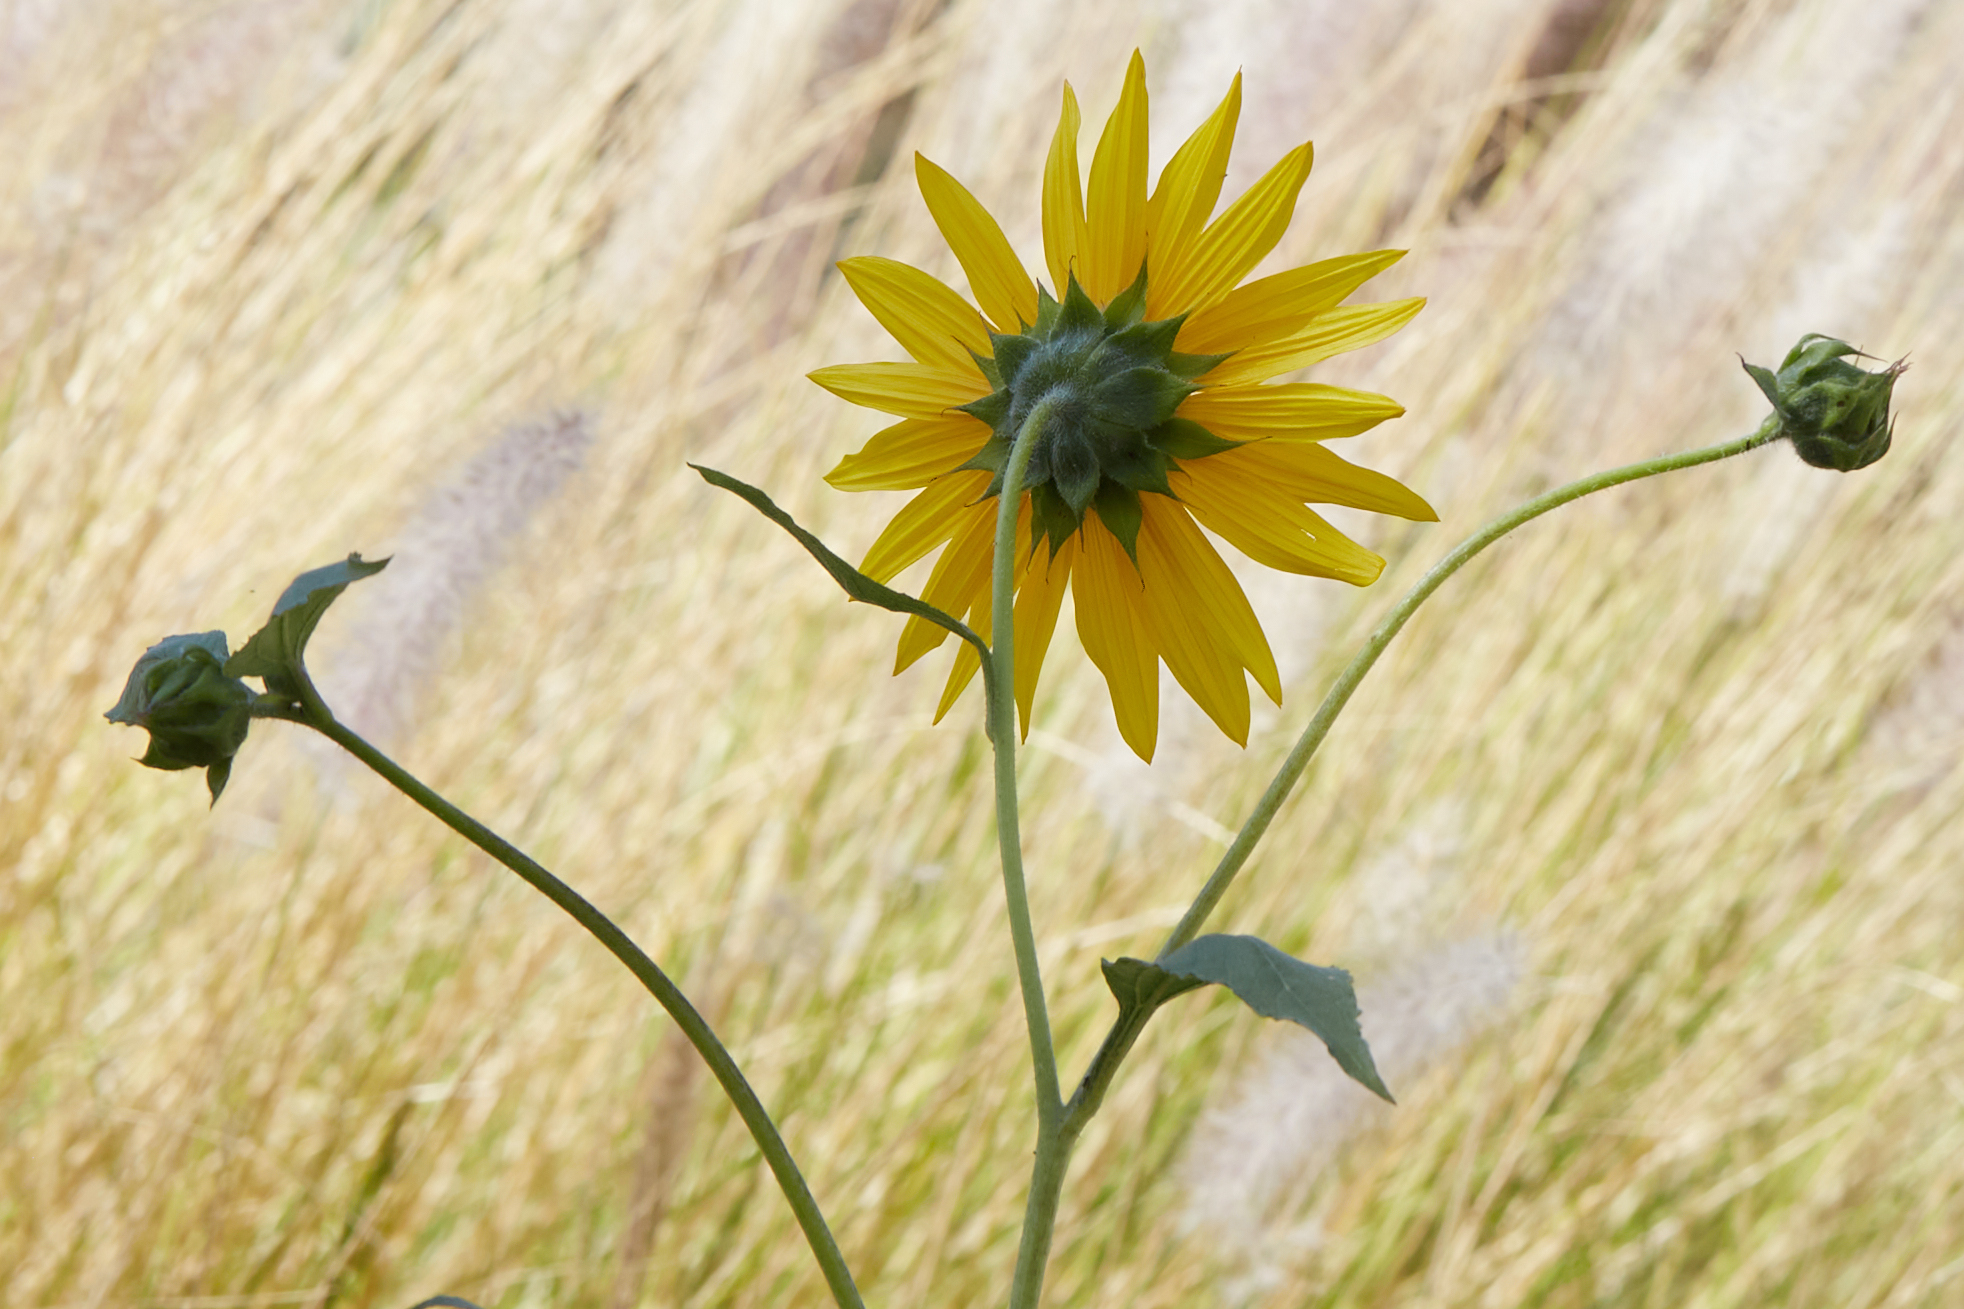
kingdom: Plantae
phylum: Tracheophyta
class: Magnoliopsida
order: Asterales
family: Asteraceae
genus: Helianthus
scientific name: Helianthus annuus
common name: Sunflower
